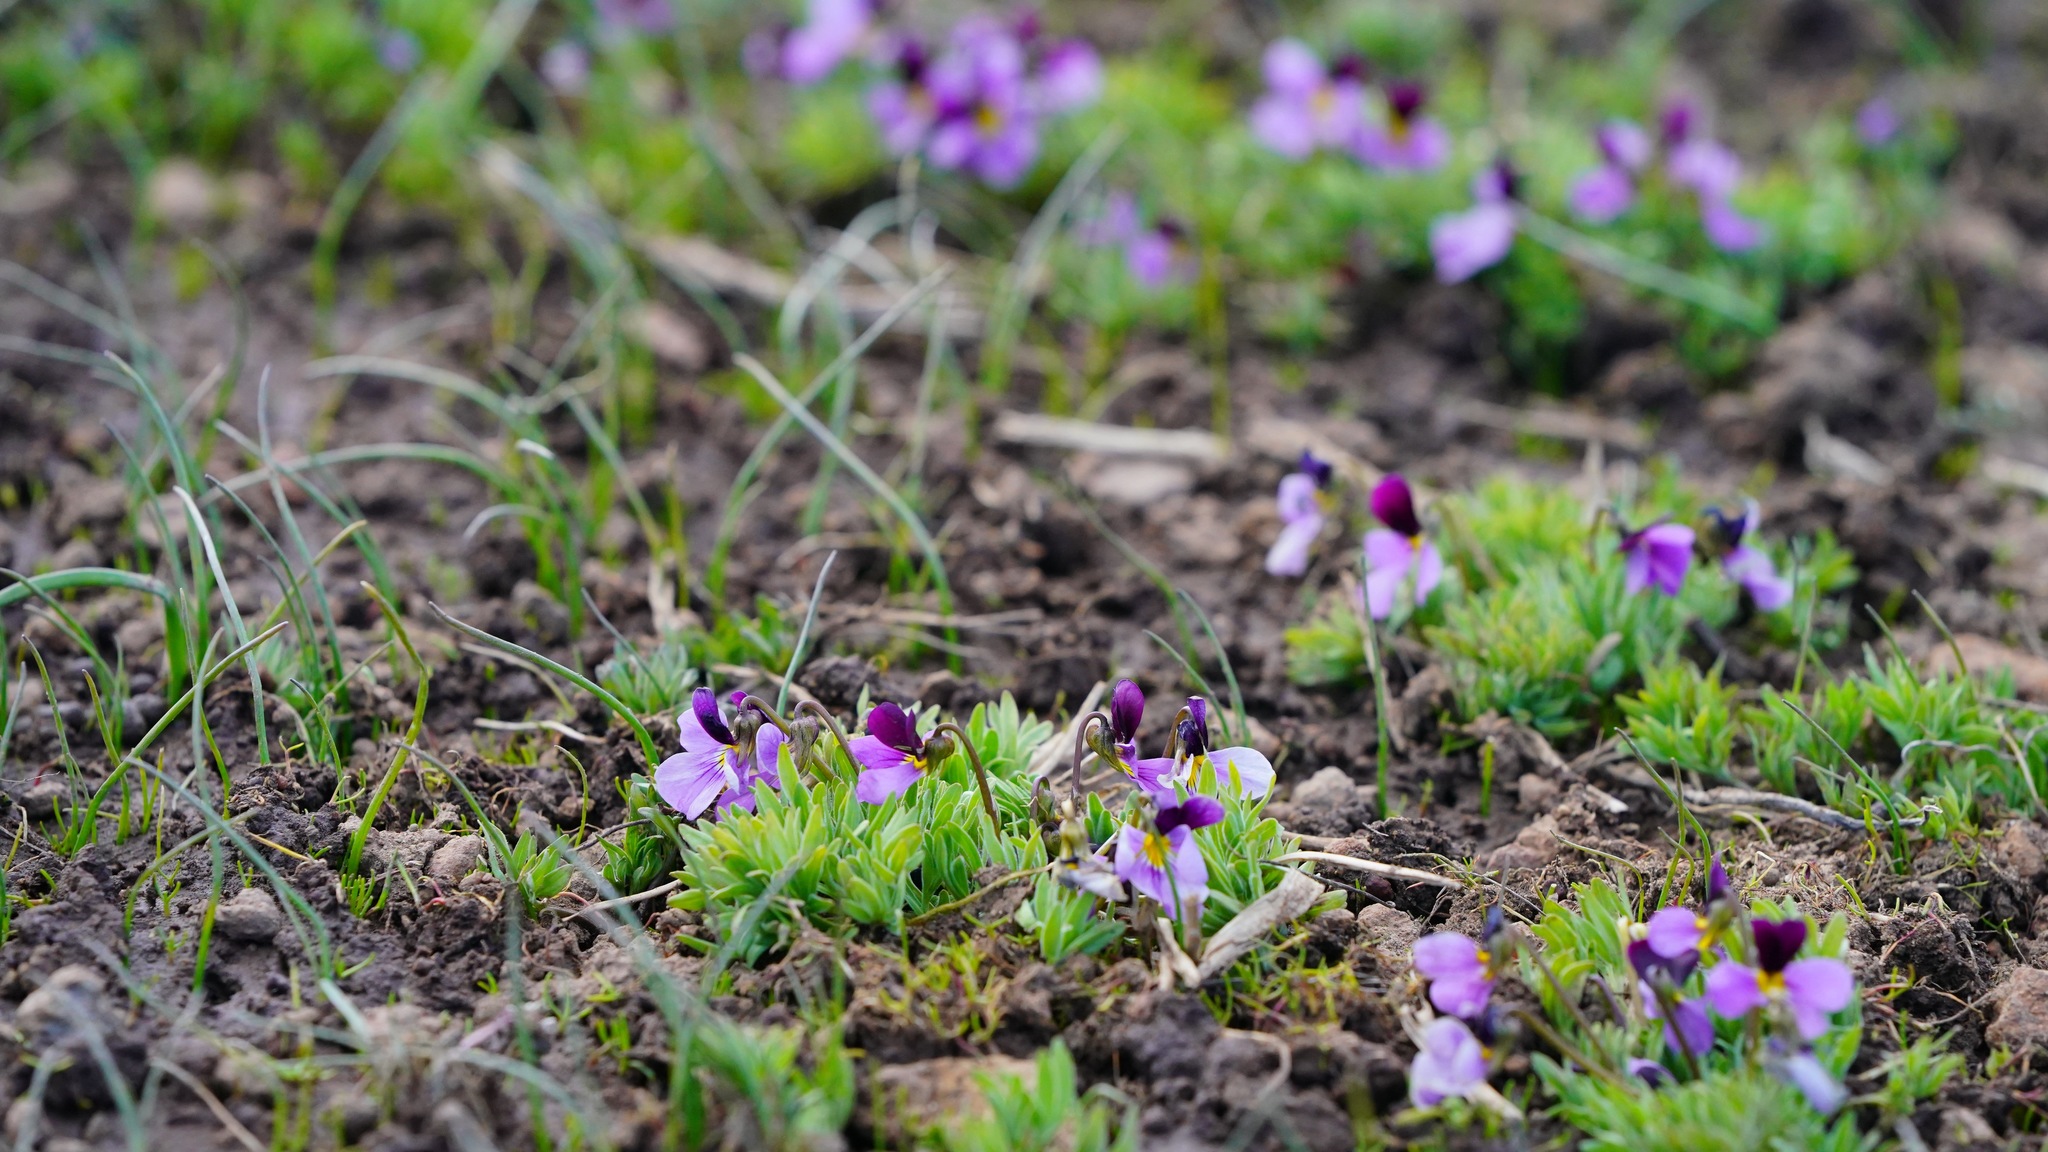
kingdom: Plantae
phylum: Tracheophyta
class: Magnoliopsida
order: Malpighiales
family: Violaceae
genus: Viola
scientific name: Viola beckwithii
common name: Beckwith's violet
